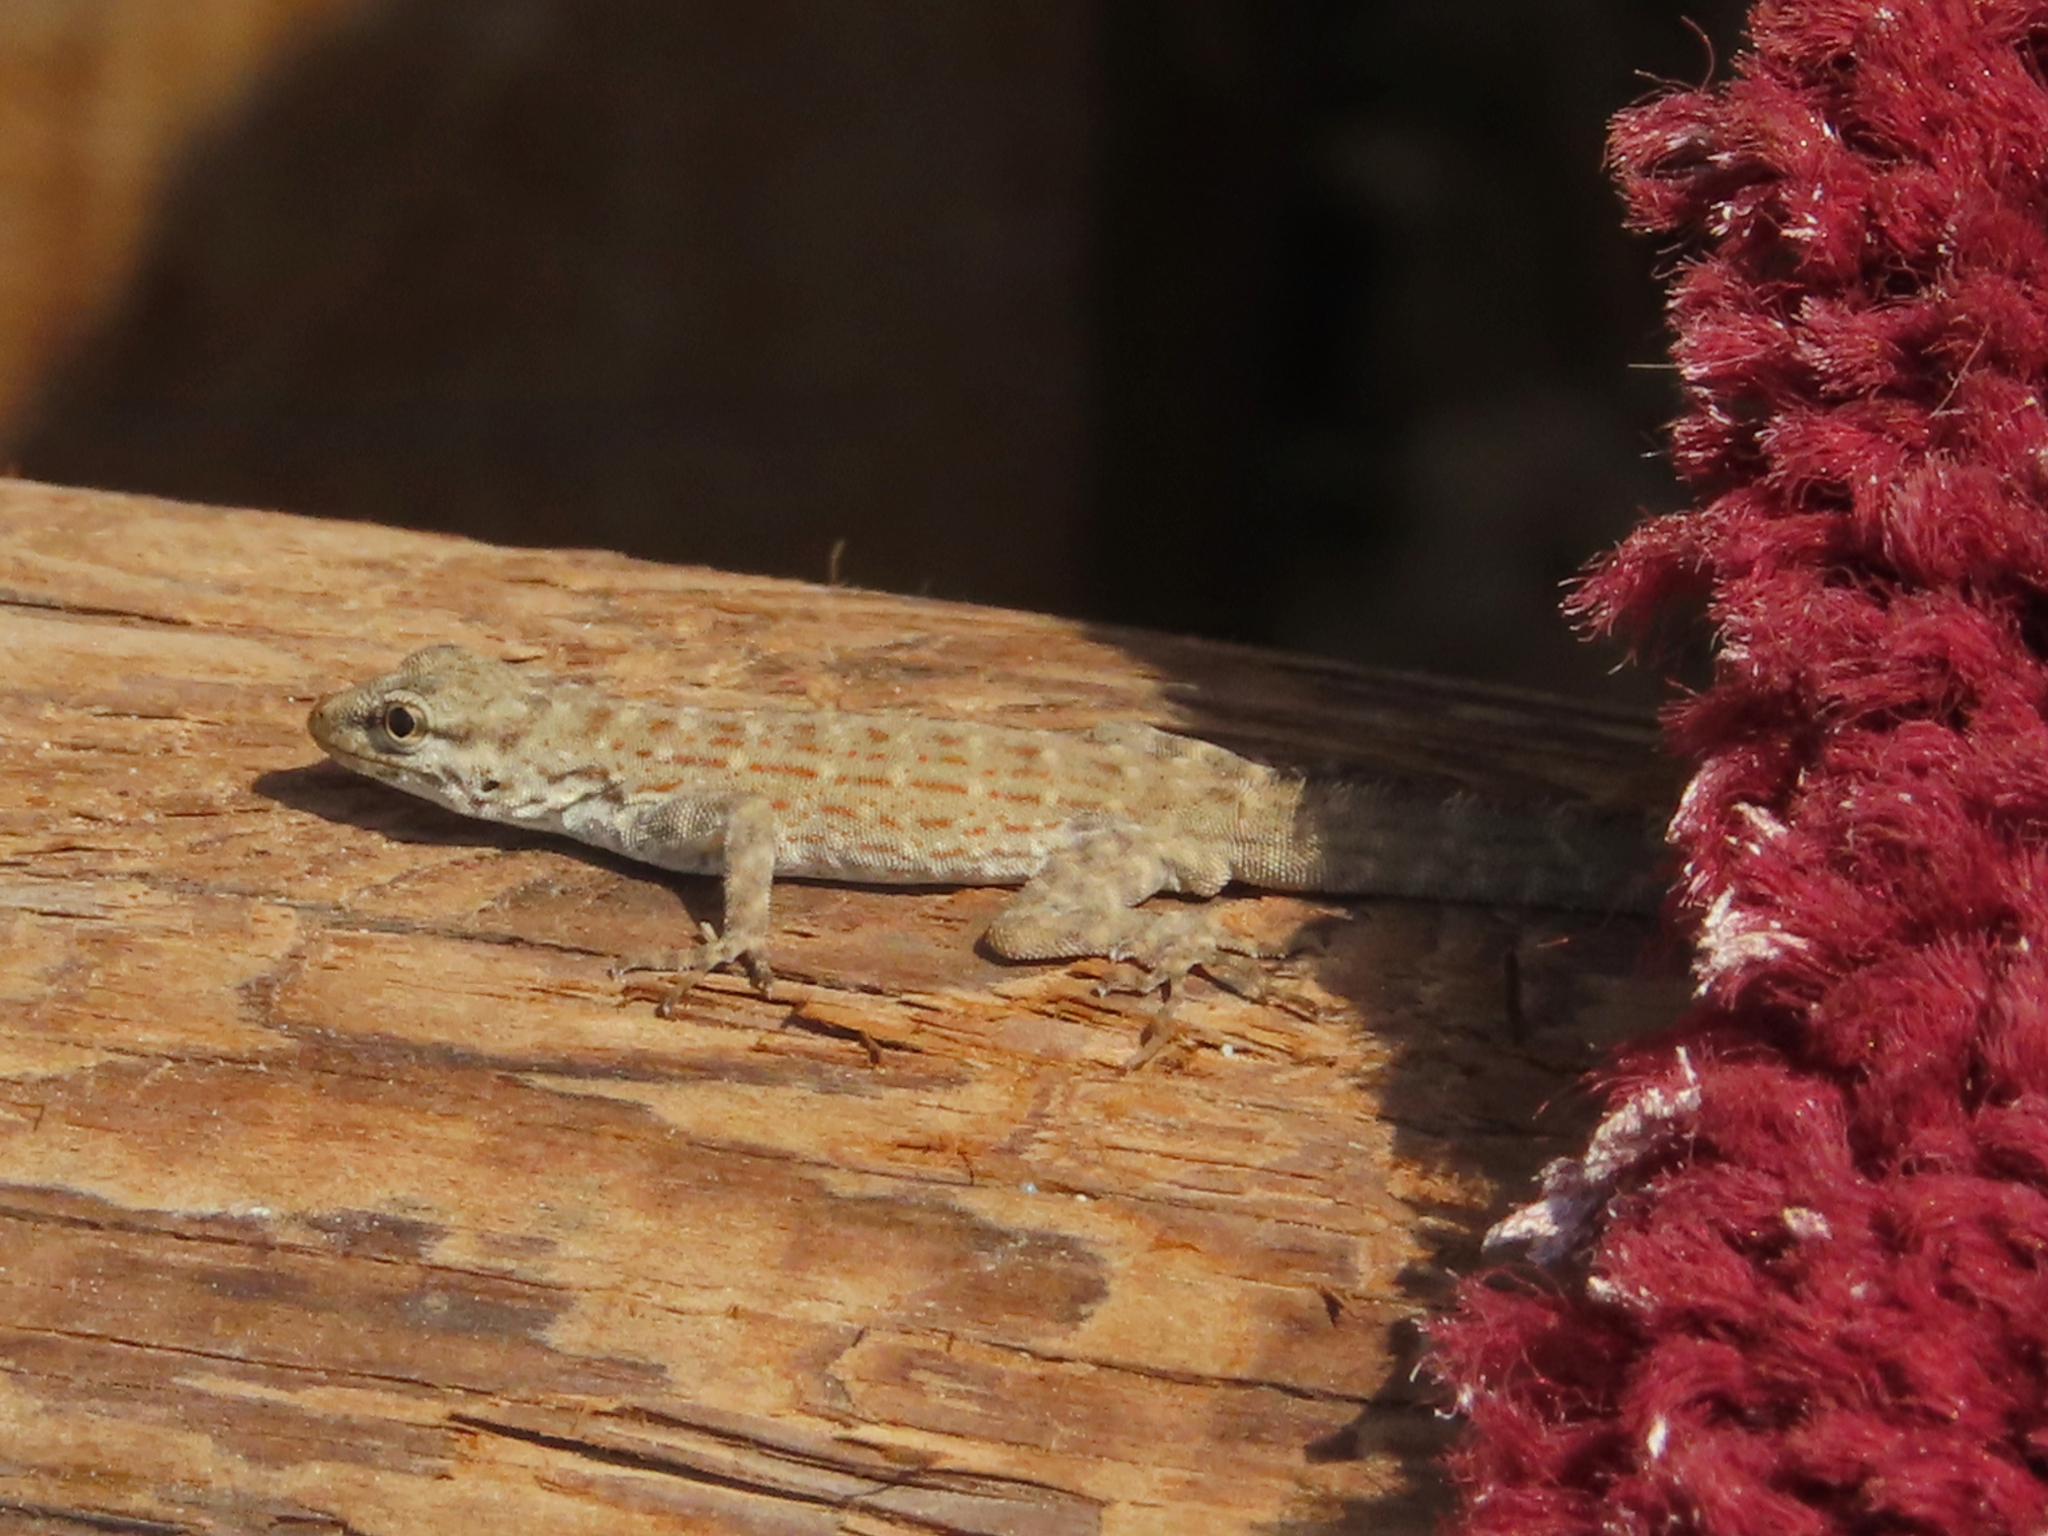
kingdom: Animalia
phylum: Chordata
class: Squamata
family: Sphaerodactylidae
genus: Pristurus
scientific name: Pristurus rupestris
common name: Blanford’s semaphore gecko
